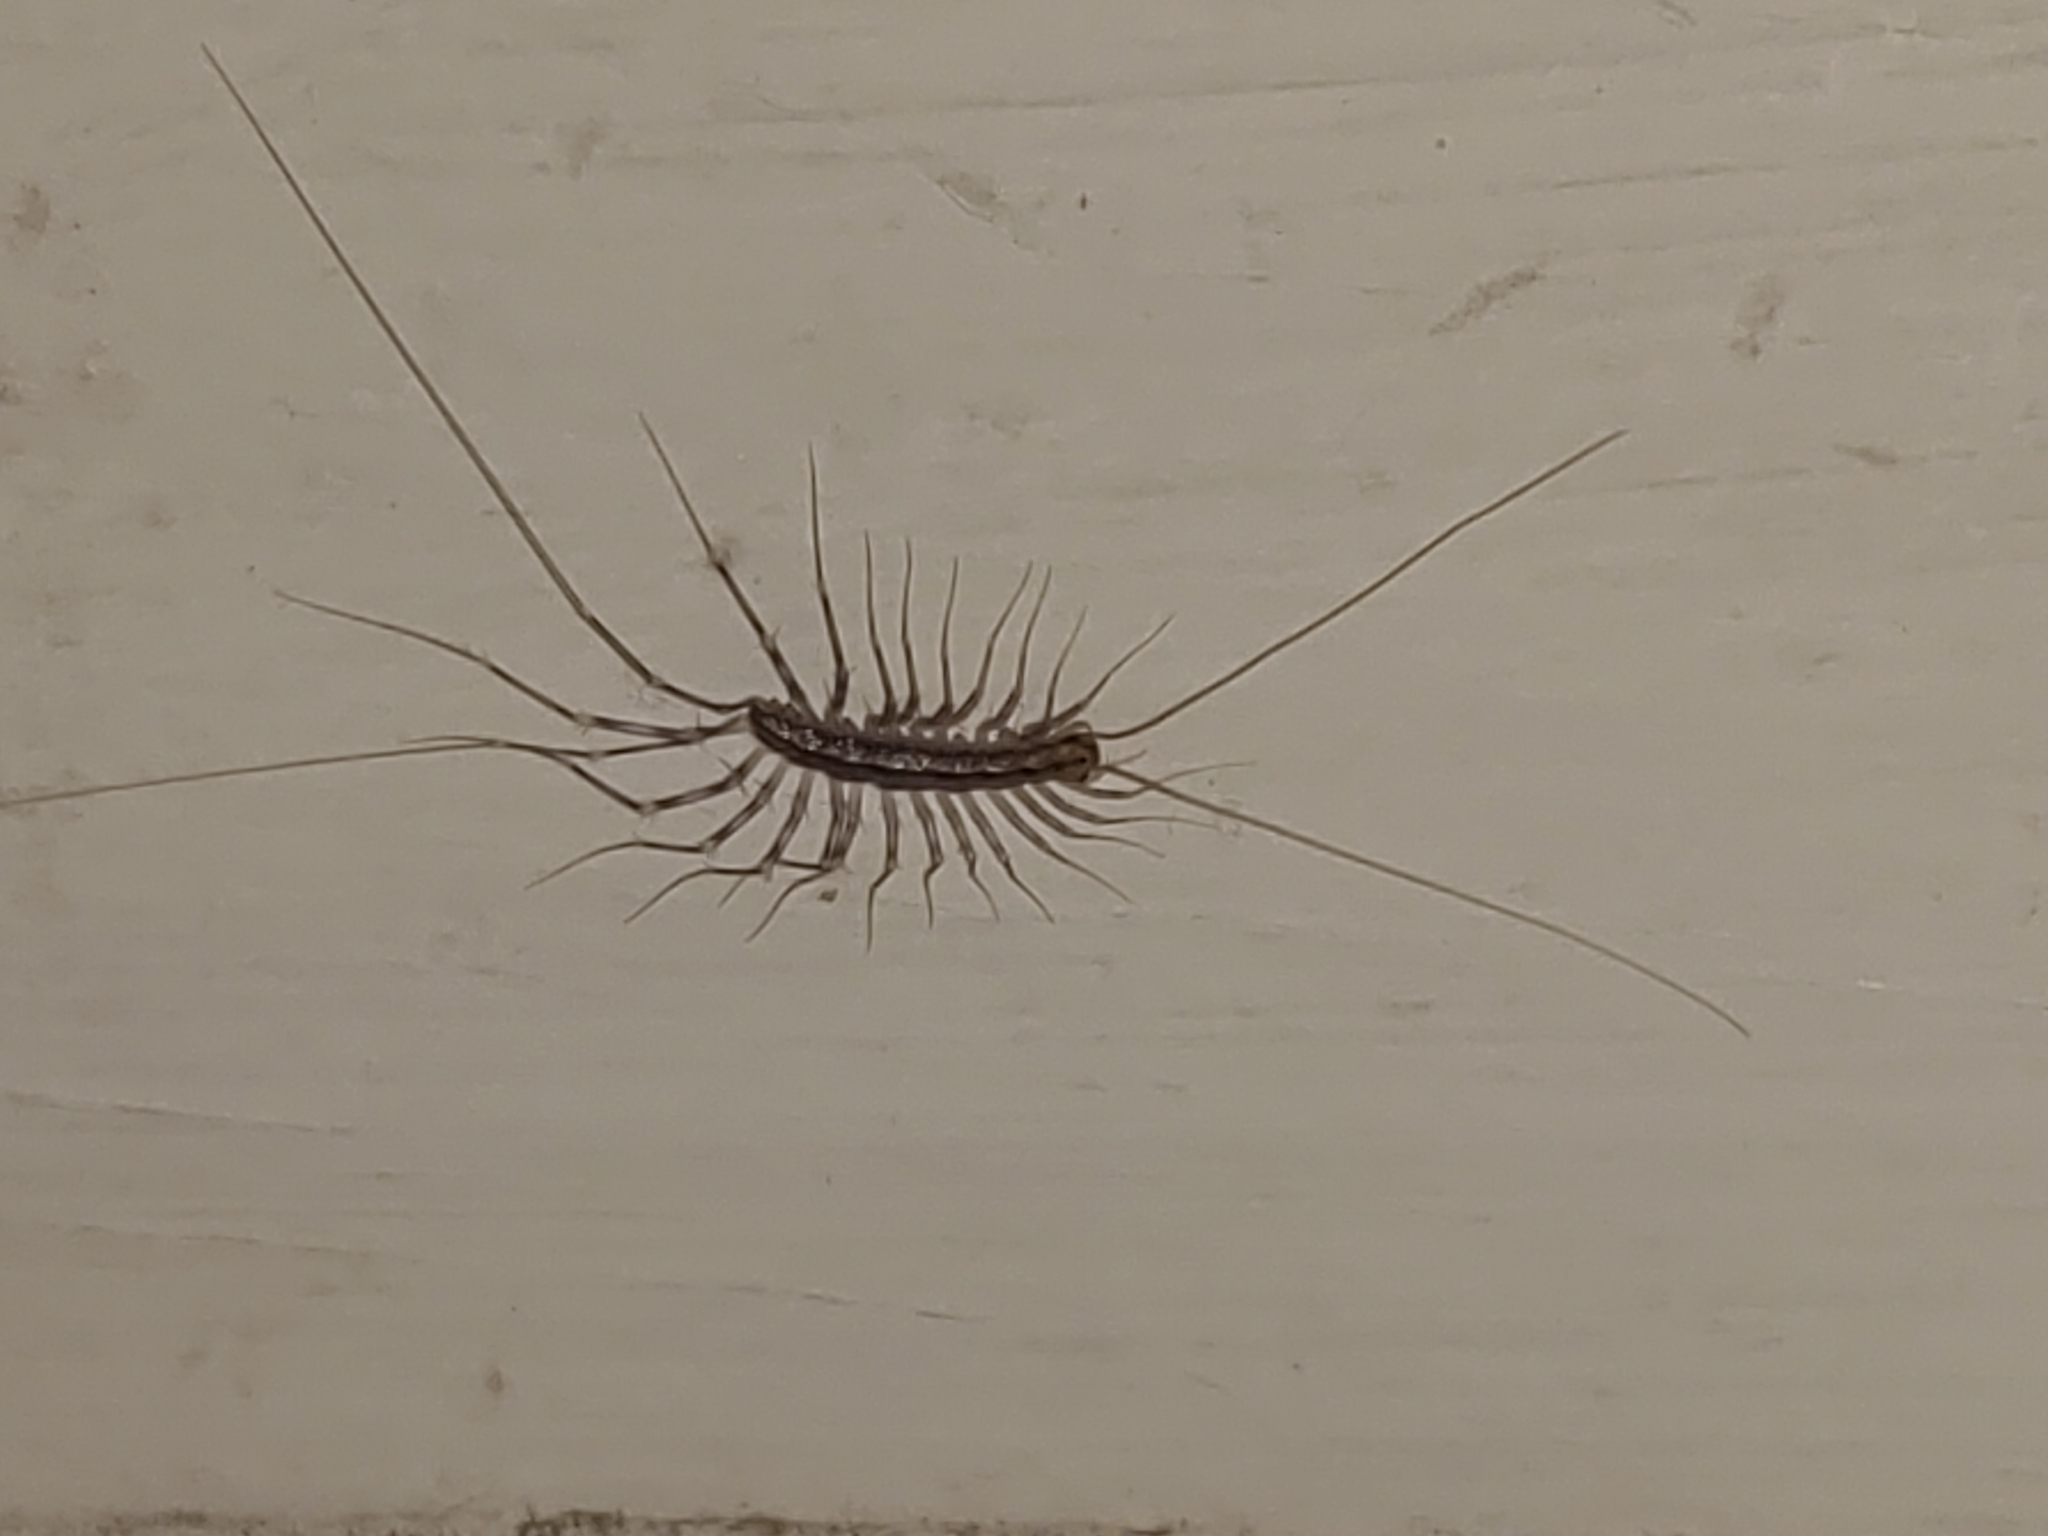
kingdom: Animalia
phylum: Arthropoda
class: Chilopoda
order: Scutigeromorpha
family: Scutigeridae
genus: Scutigera
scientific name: Scutigera coleoptrata
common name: House centipede
